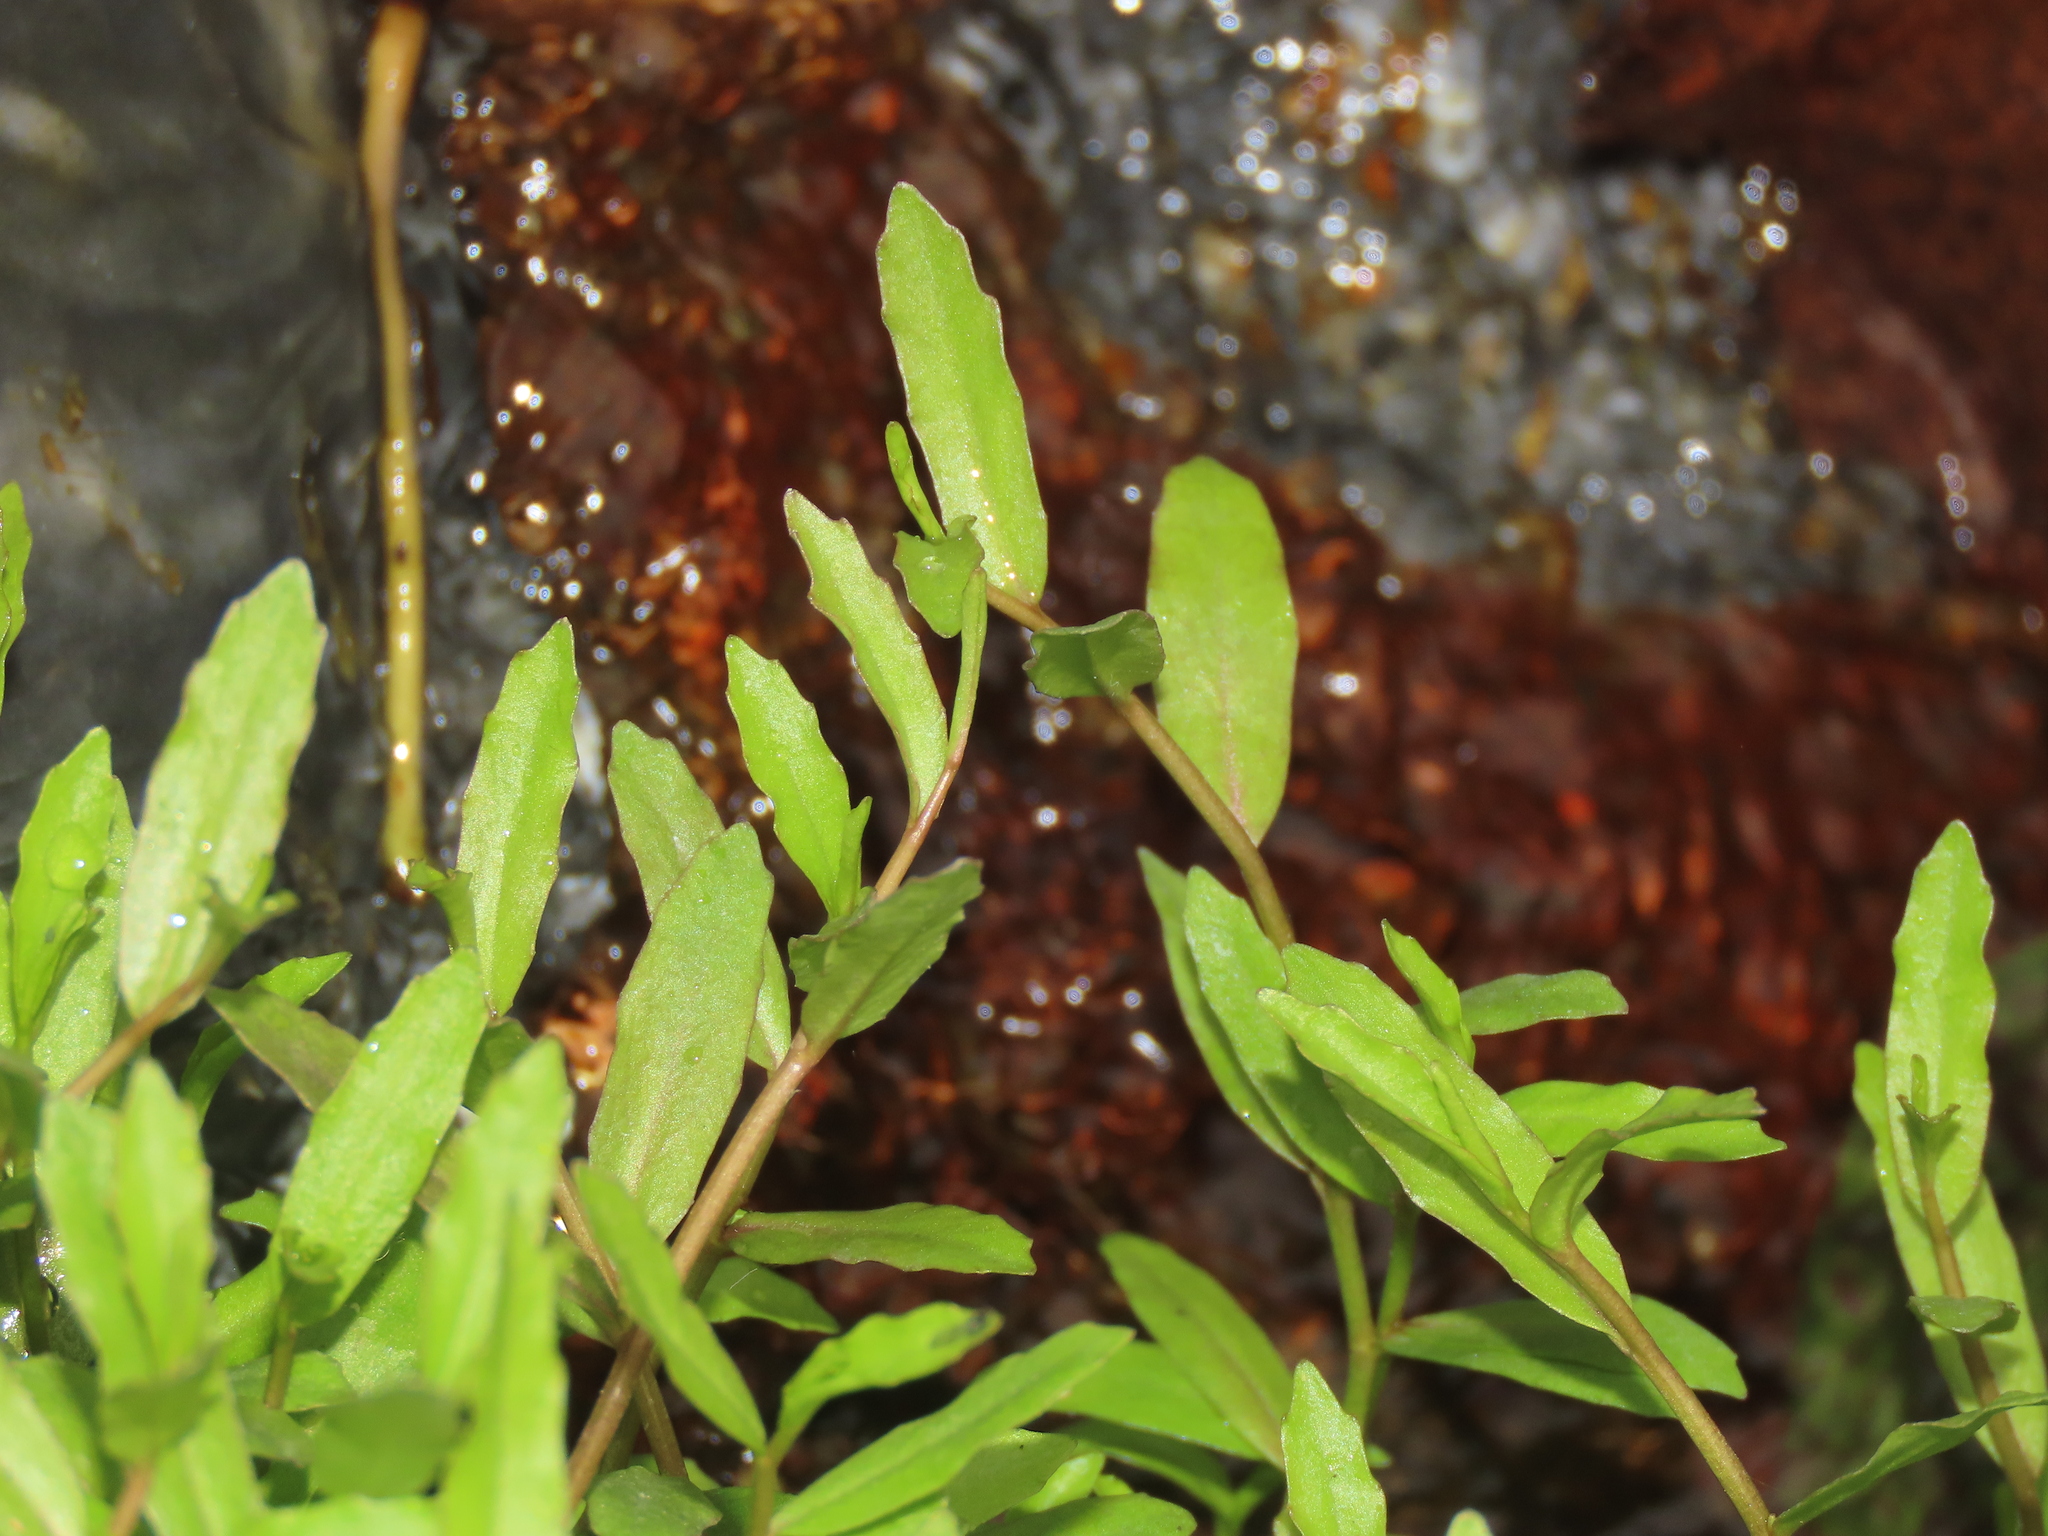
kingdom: Plantae
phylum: Tracheophyta
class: Magnoliopsida
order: Asterales
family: Campanulaceae
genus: Lobelia
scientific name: Lobelia chinensis
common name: Chinese lobelia
